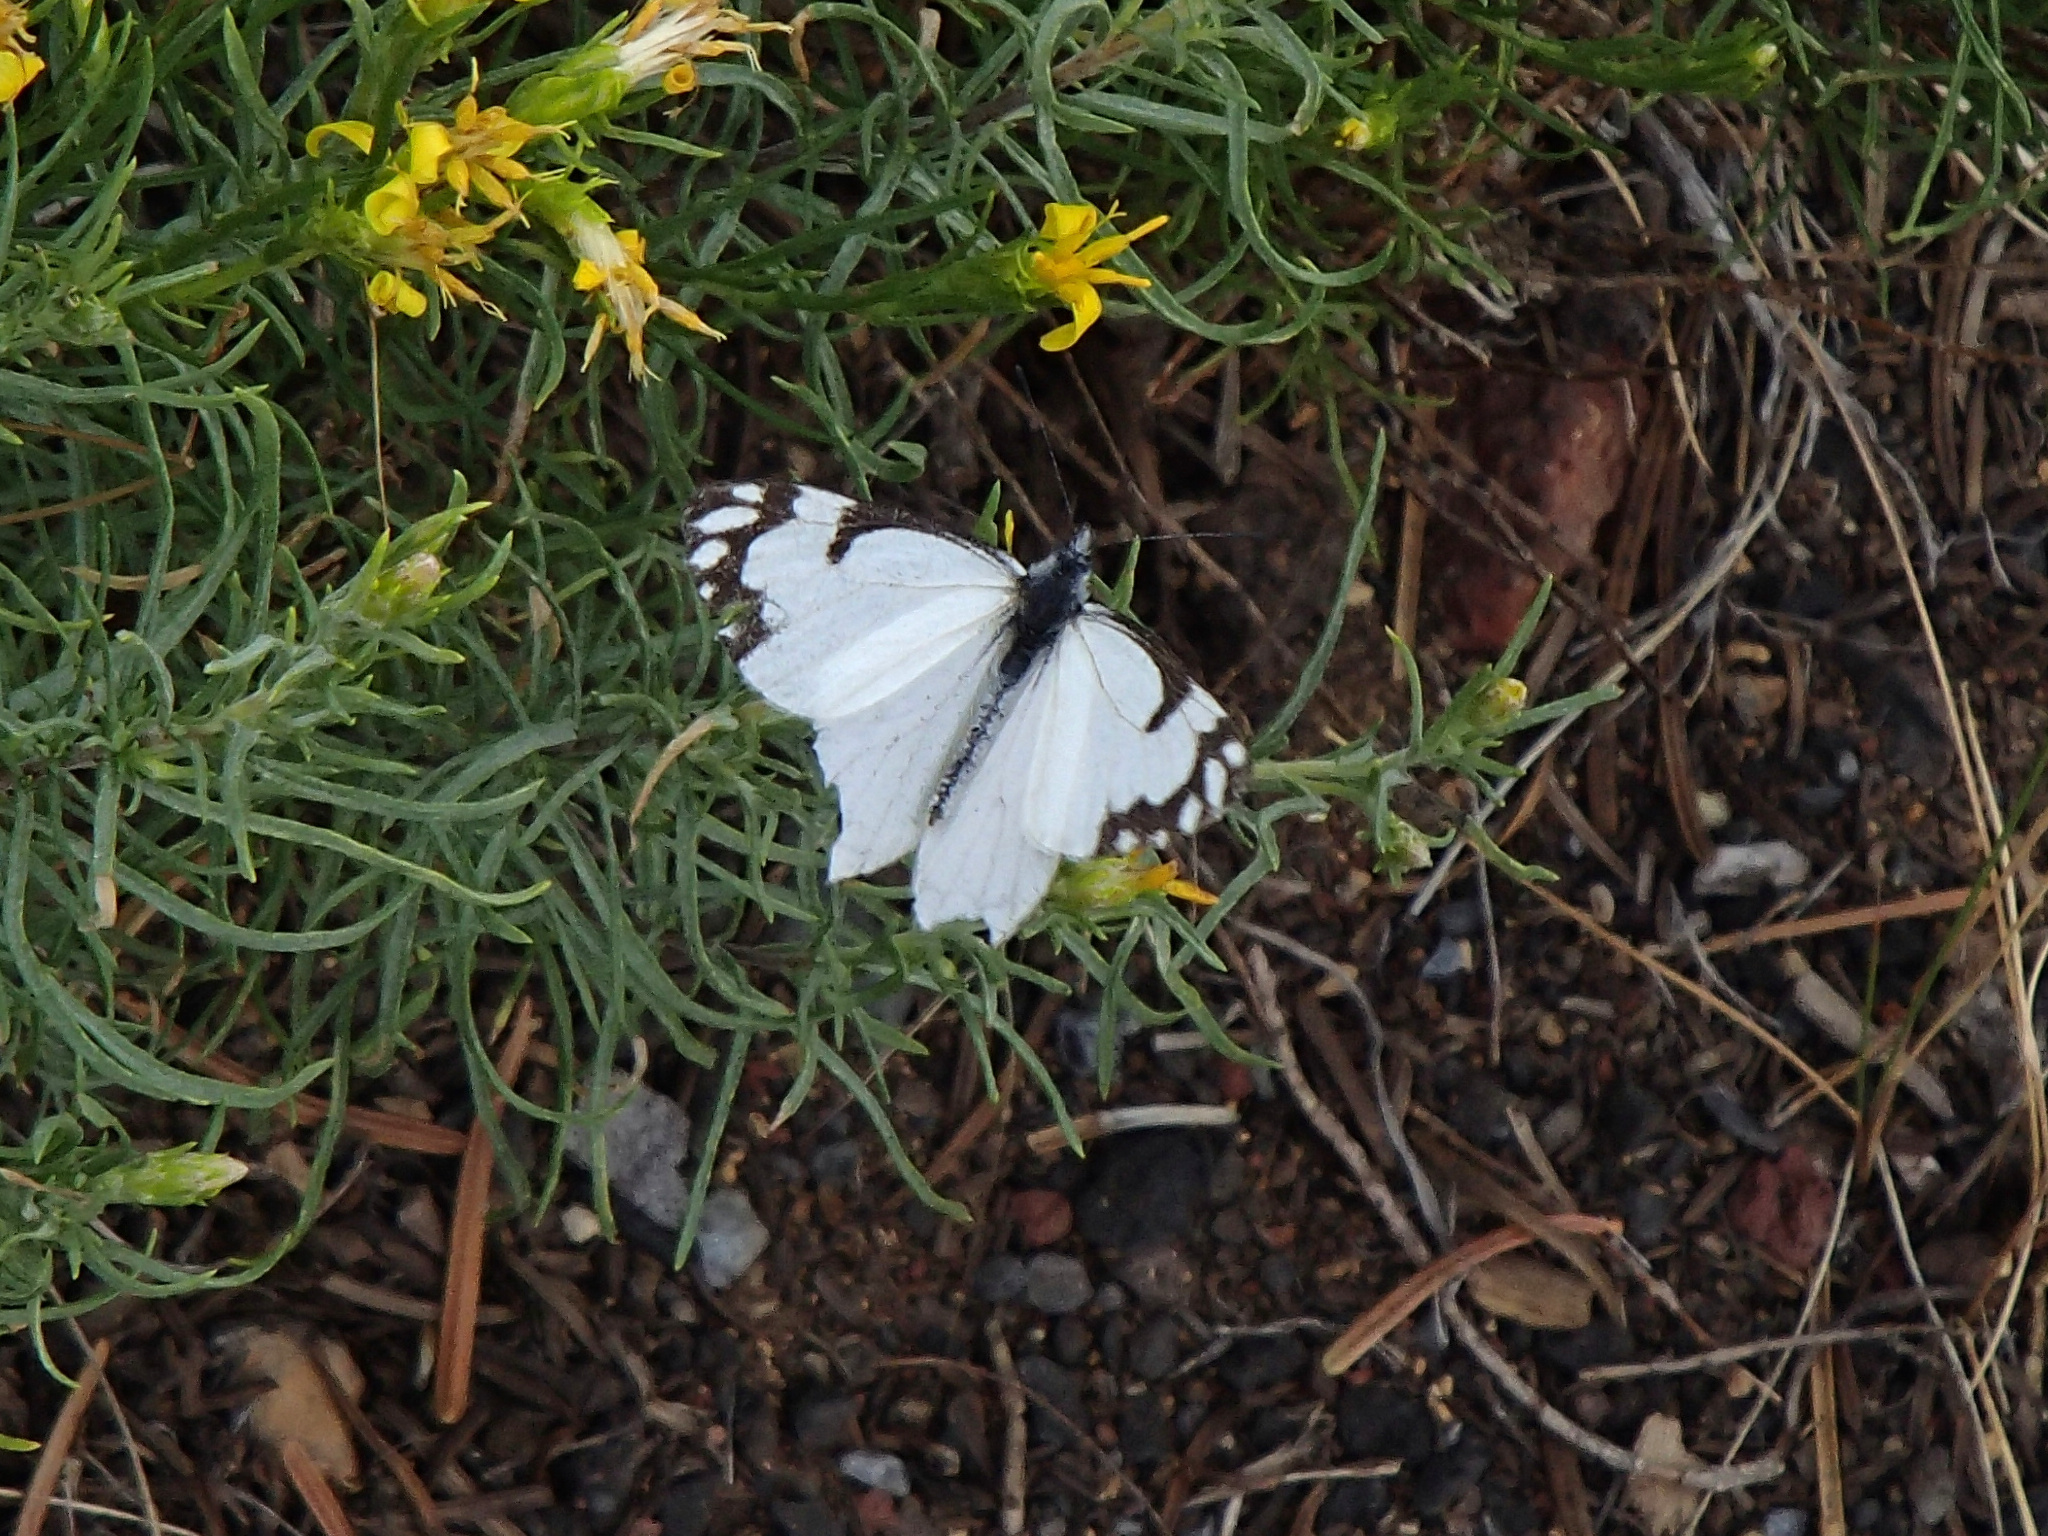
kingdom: Animalia
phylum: Arthropoda
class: Insecta
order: Lepidoptera
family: Pieridae
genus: Neophasia
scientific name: Neophasia menapia
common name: Pine white
